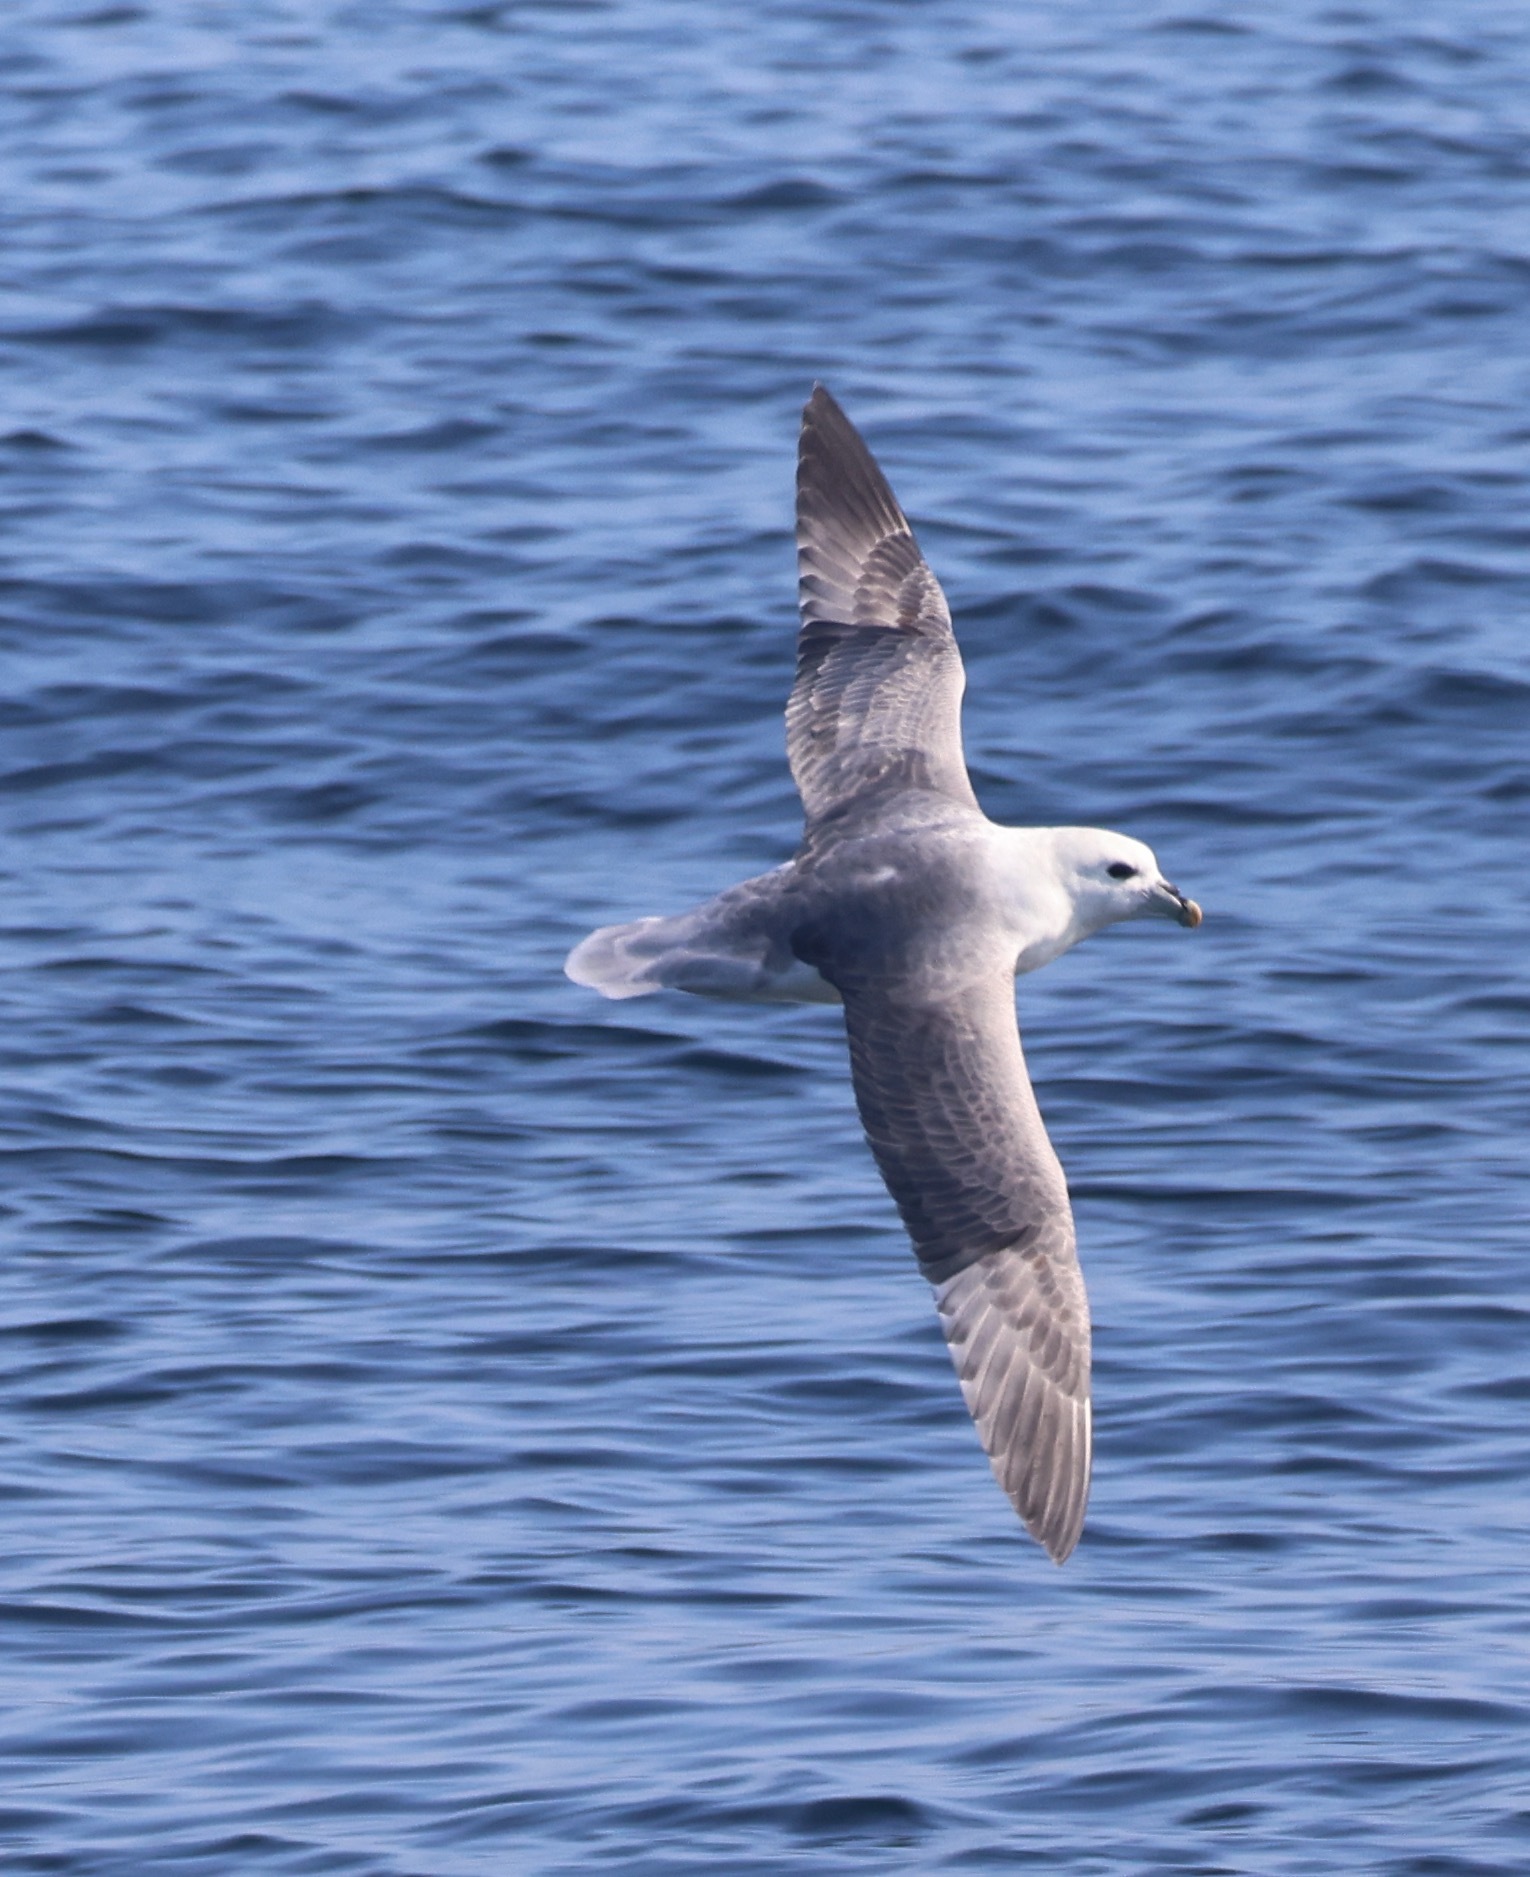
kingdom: Animalia
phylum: Chordata
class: Aves
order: Procellariiformes
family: Procellariidae
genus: Fulmarus
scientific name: Fulmarus glacialis
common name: Northern fulmar
